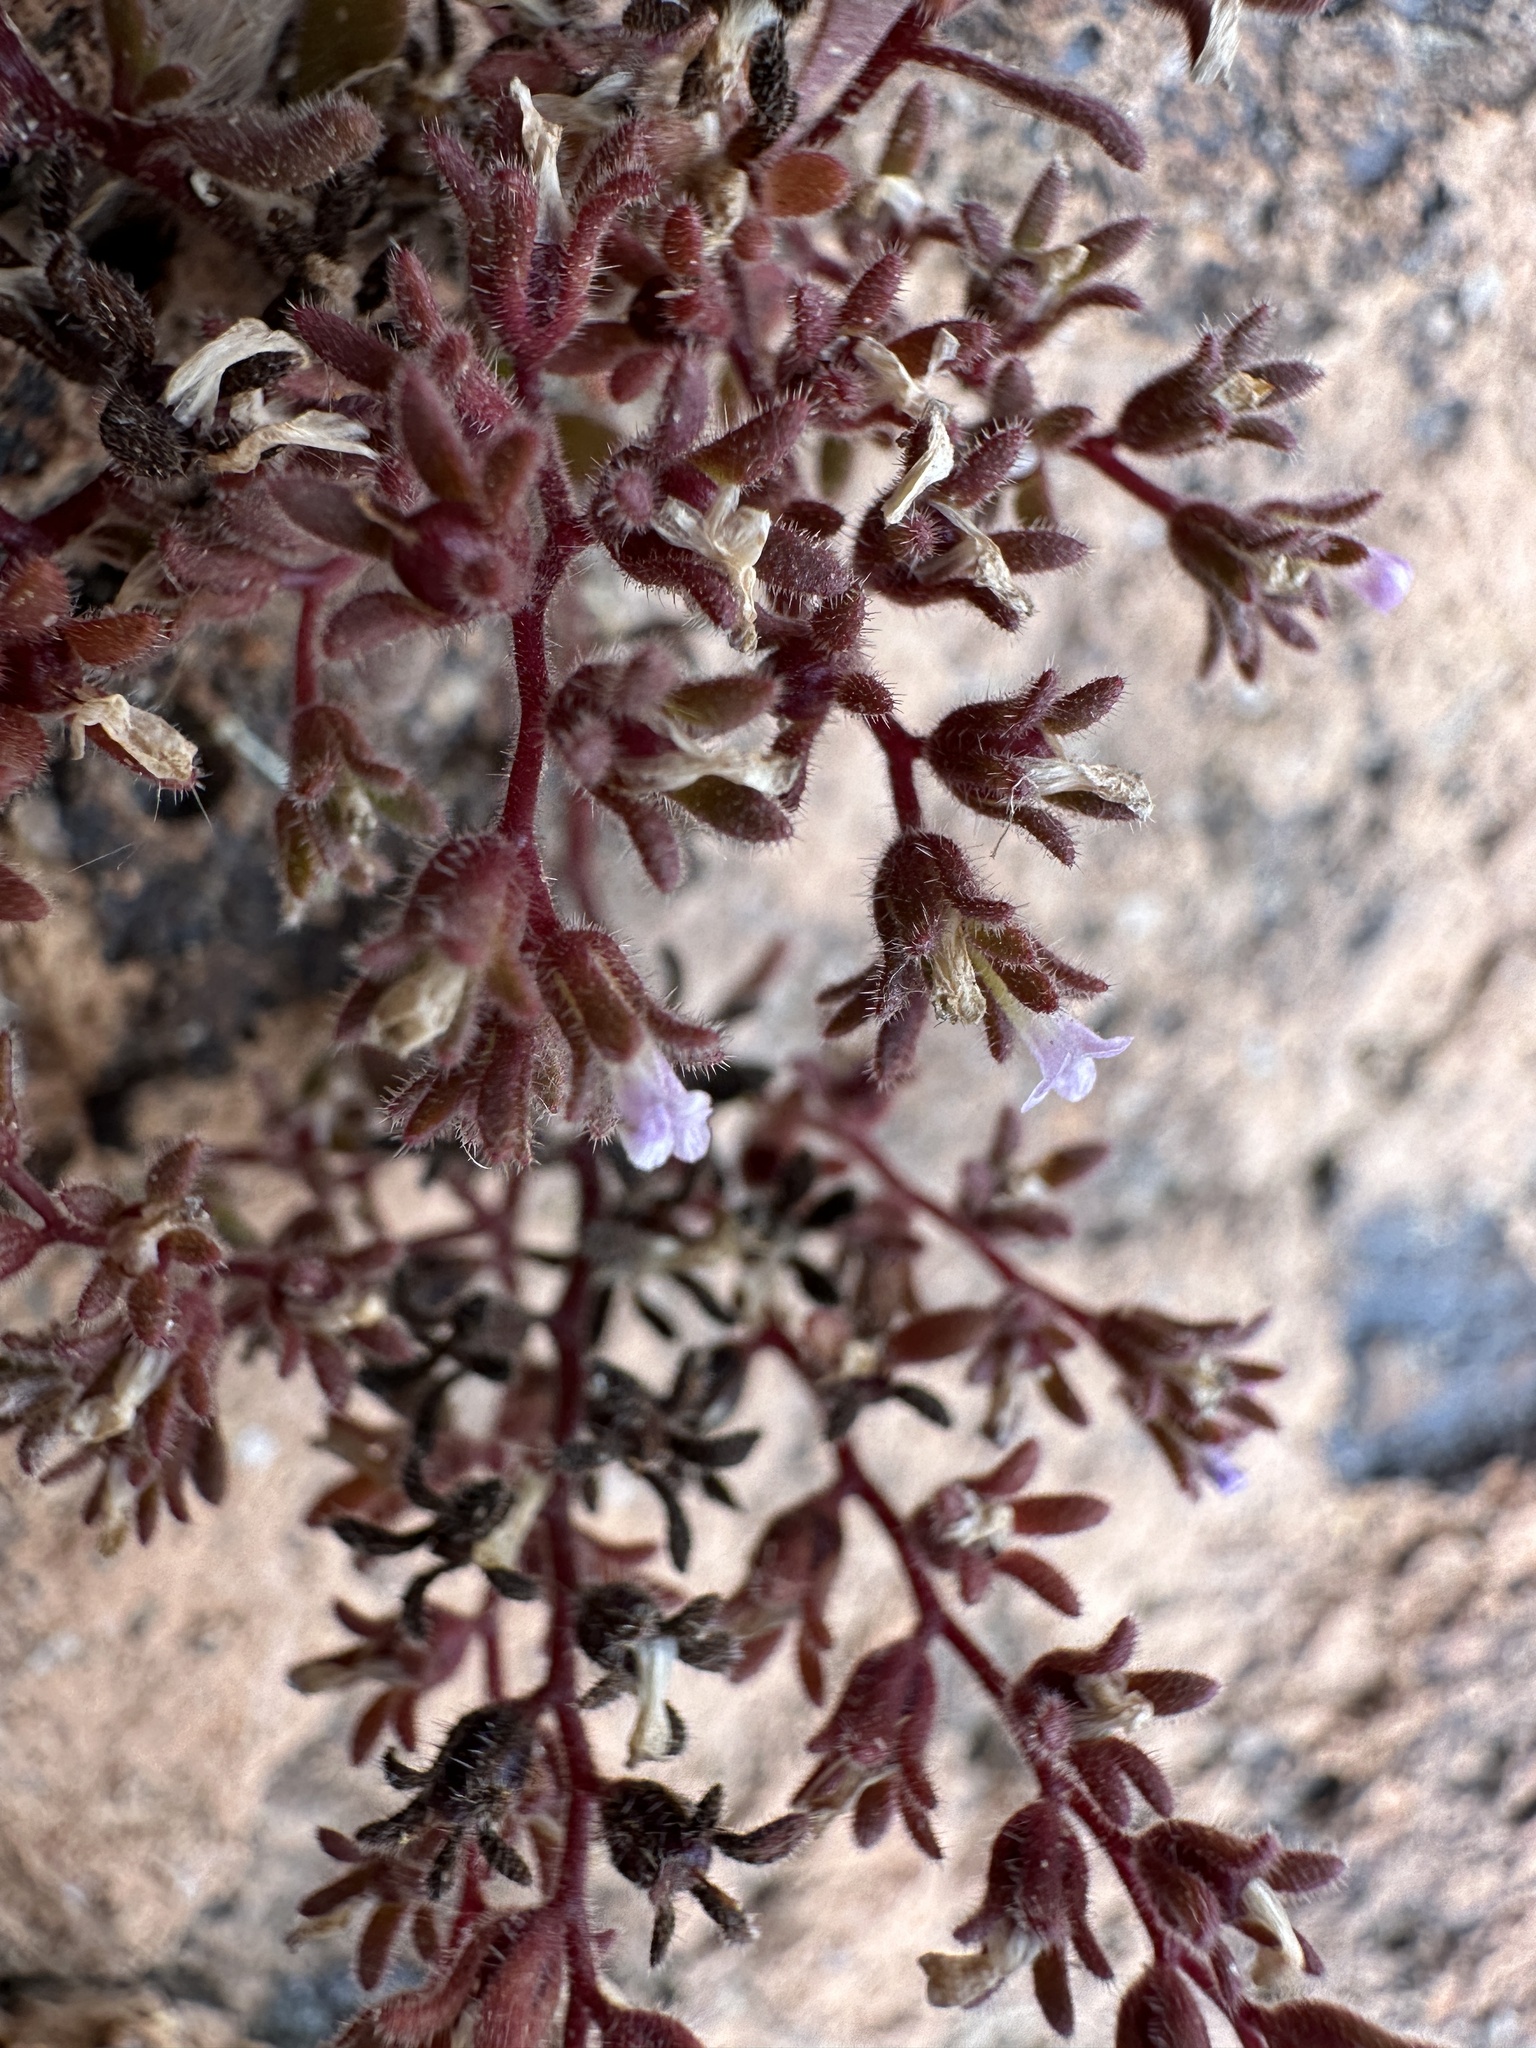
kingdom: Plantae
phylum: Tracheophyta
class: Magnoliopsida
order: Boraginales
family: Hydrophyllaceae
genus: Phacelia
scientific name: Phacelia saxicola
